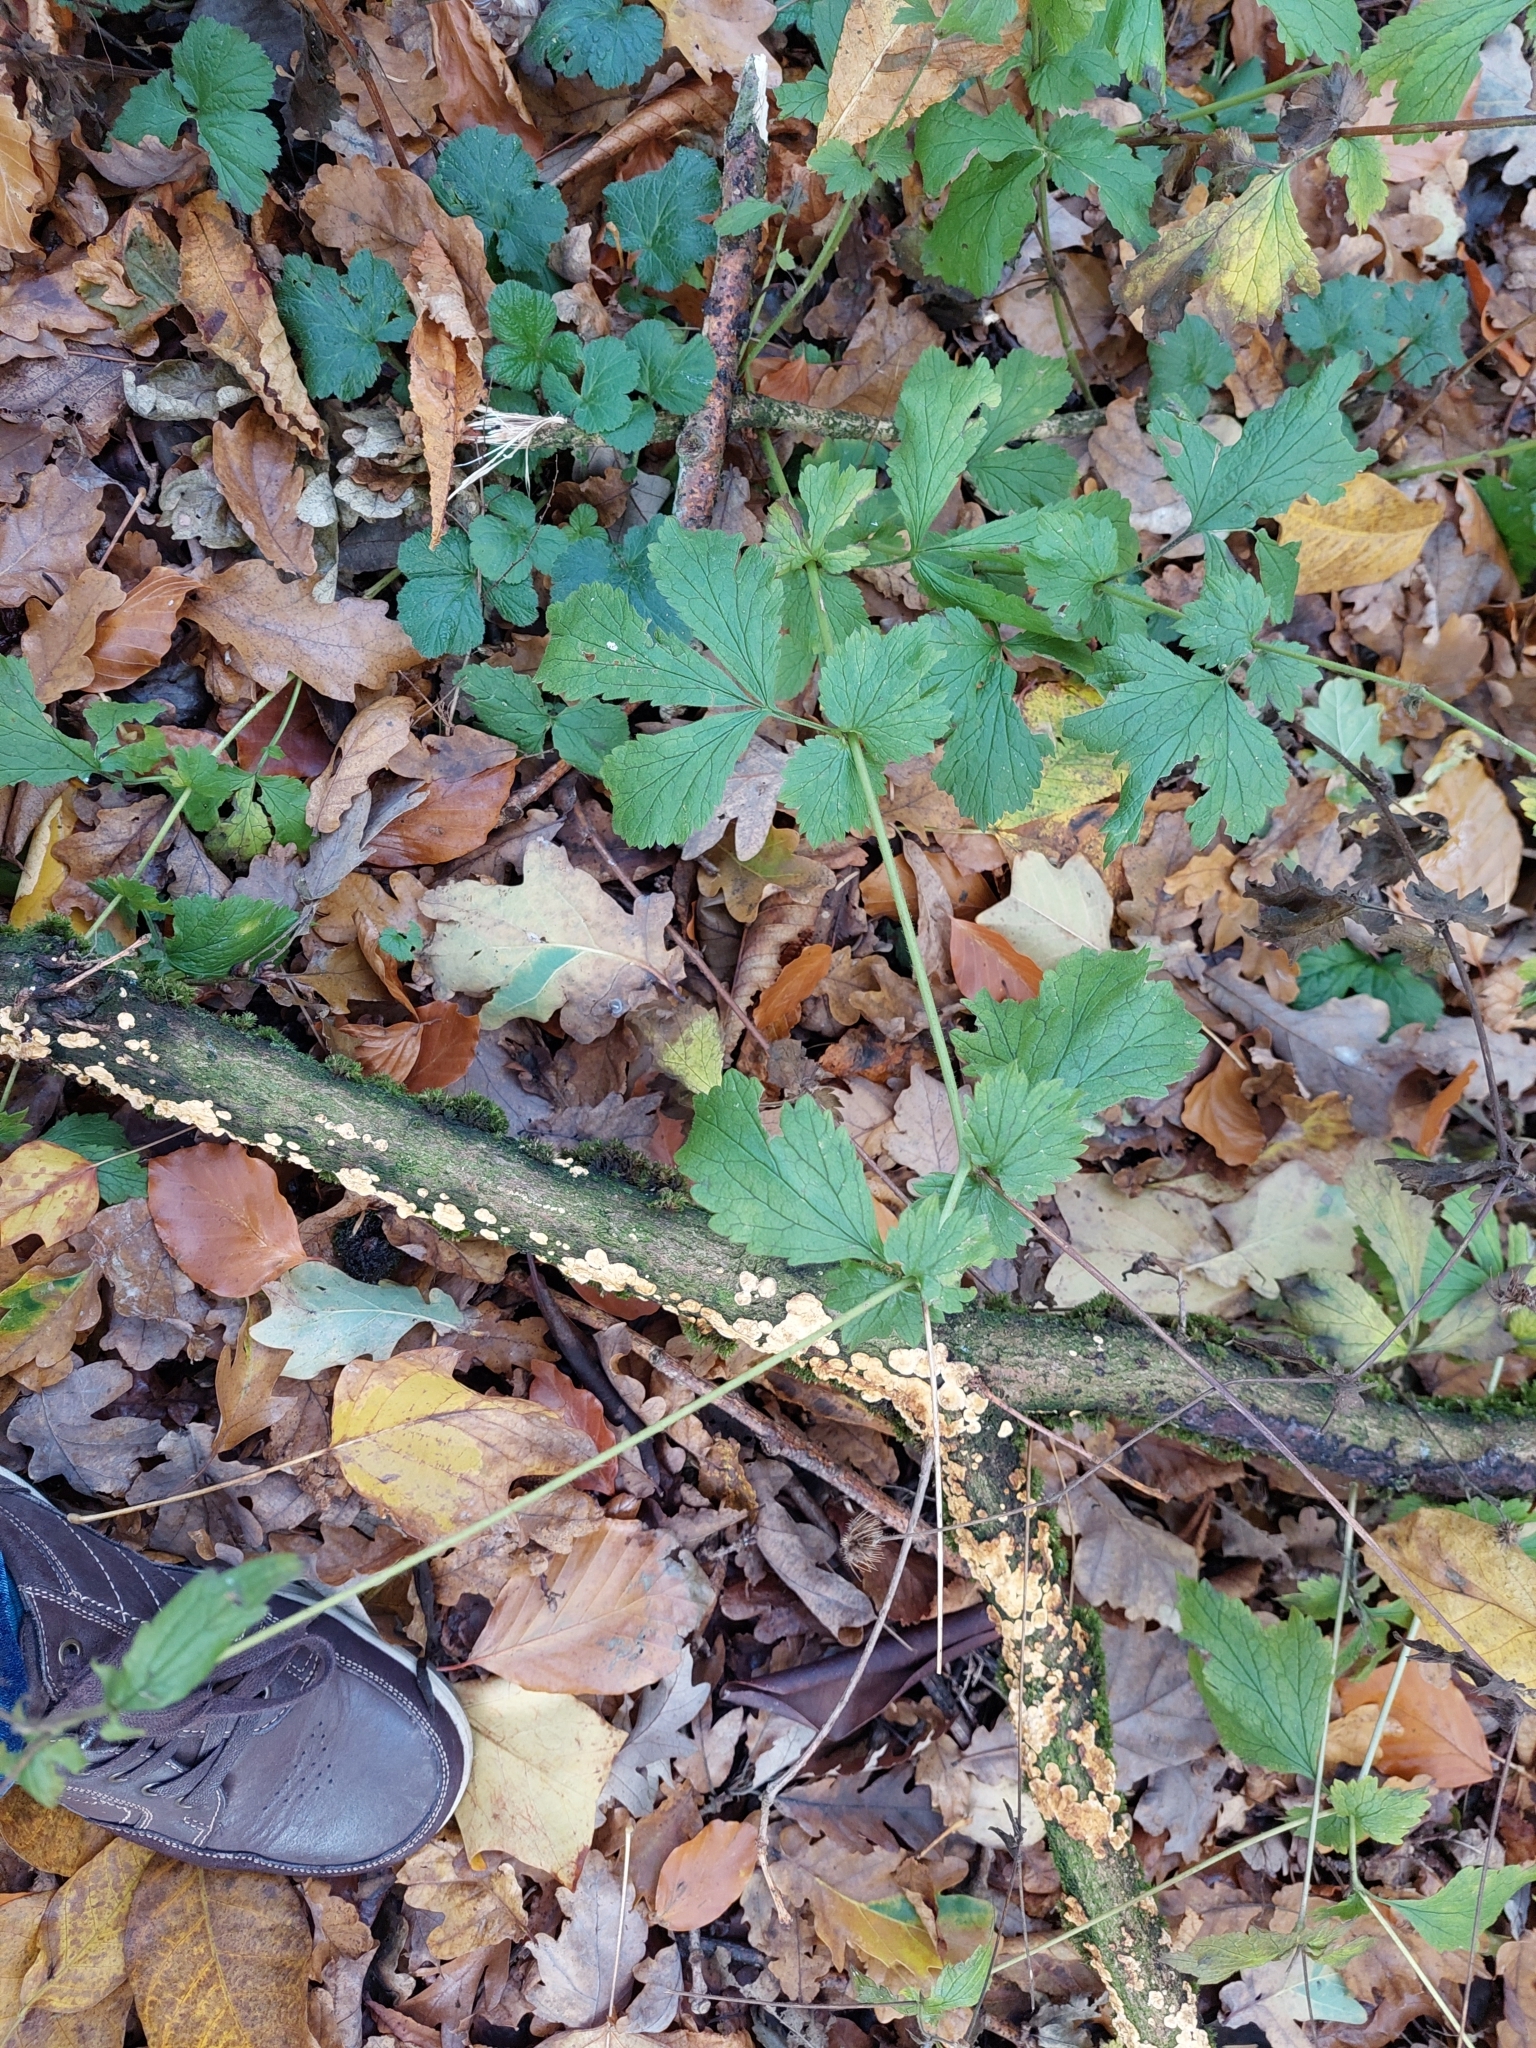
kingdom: Plantae
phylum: Tracheophyta
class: Magnoliopsida
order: Rosales
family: Rosaceae
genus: Geum
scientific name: Geum urbanum
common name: Wood avens
